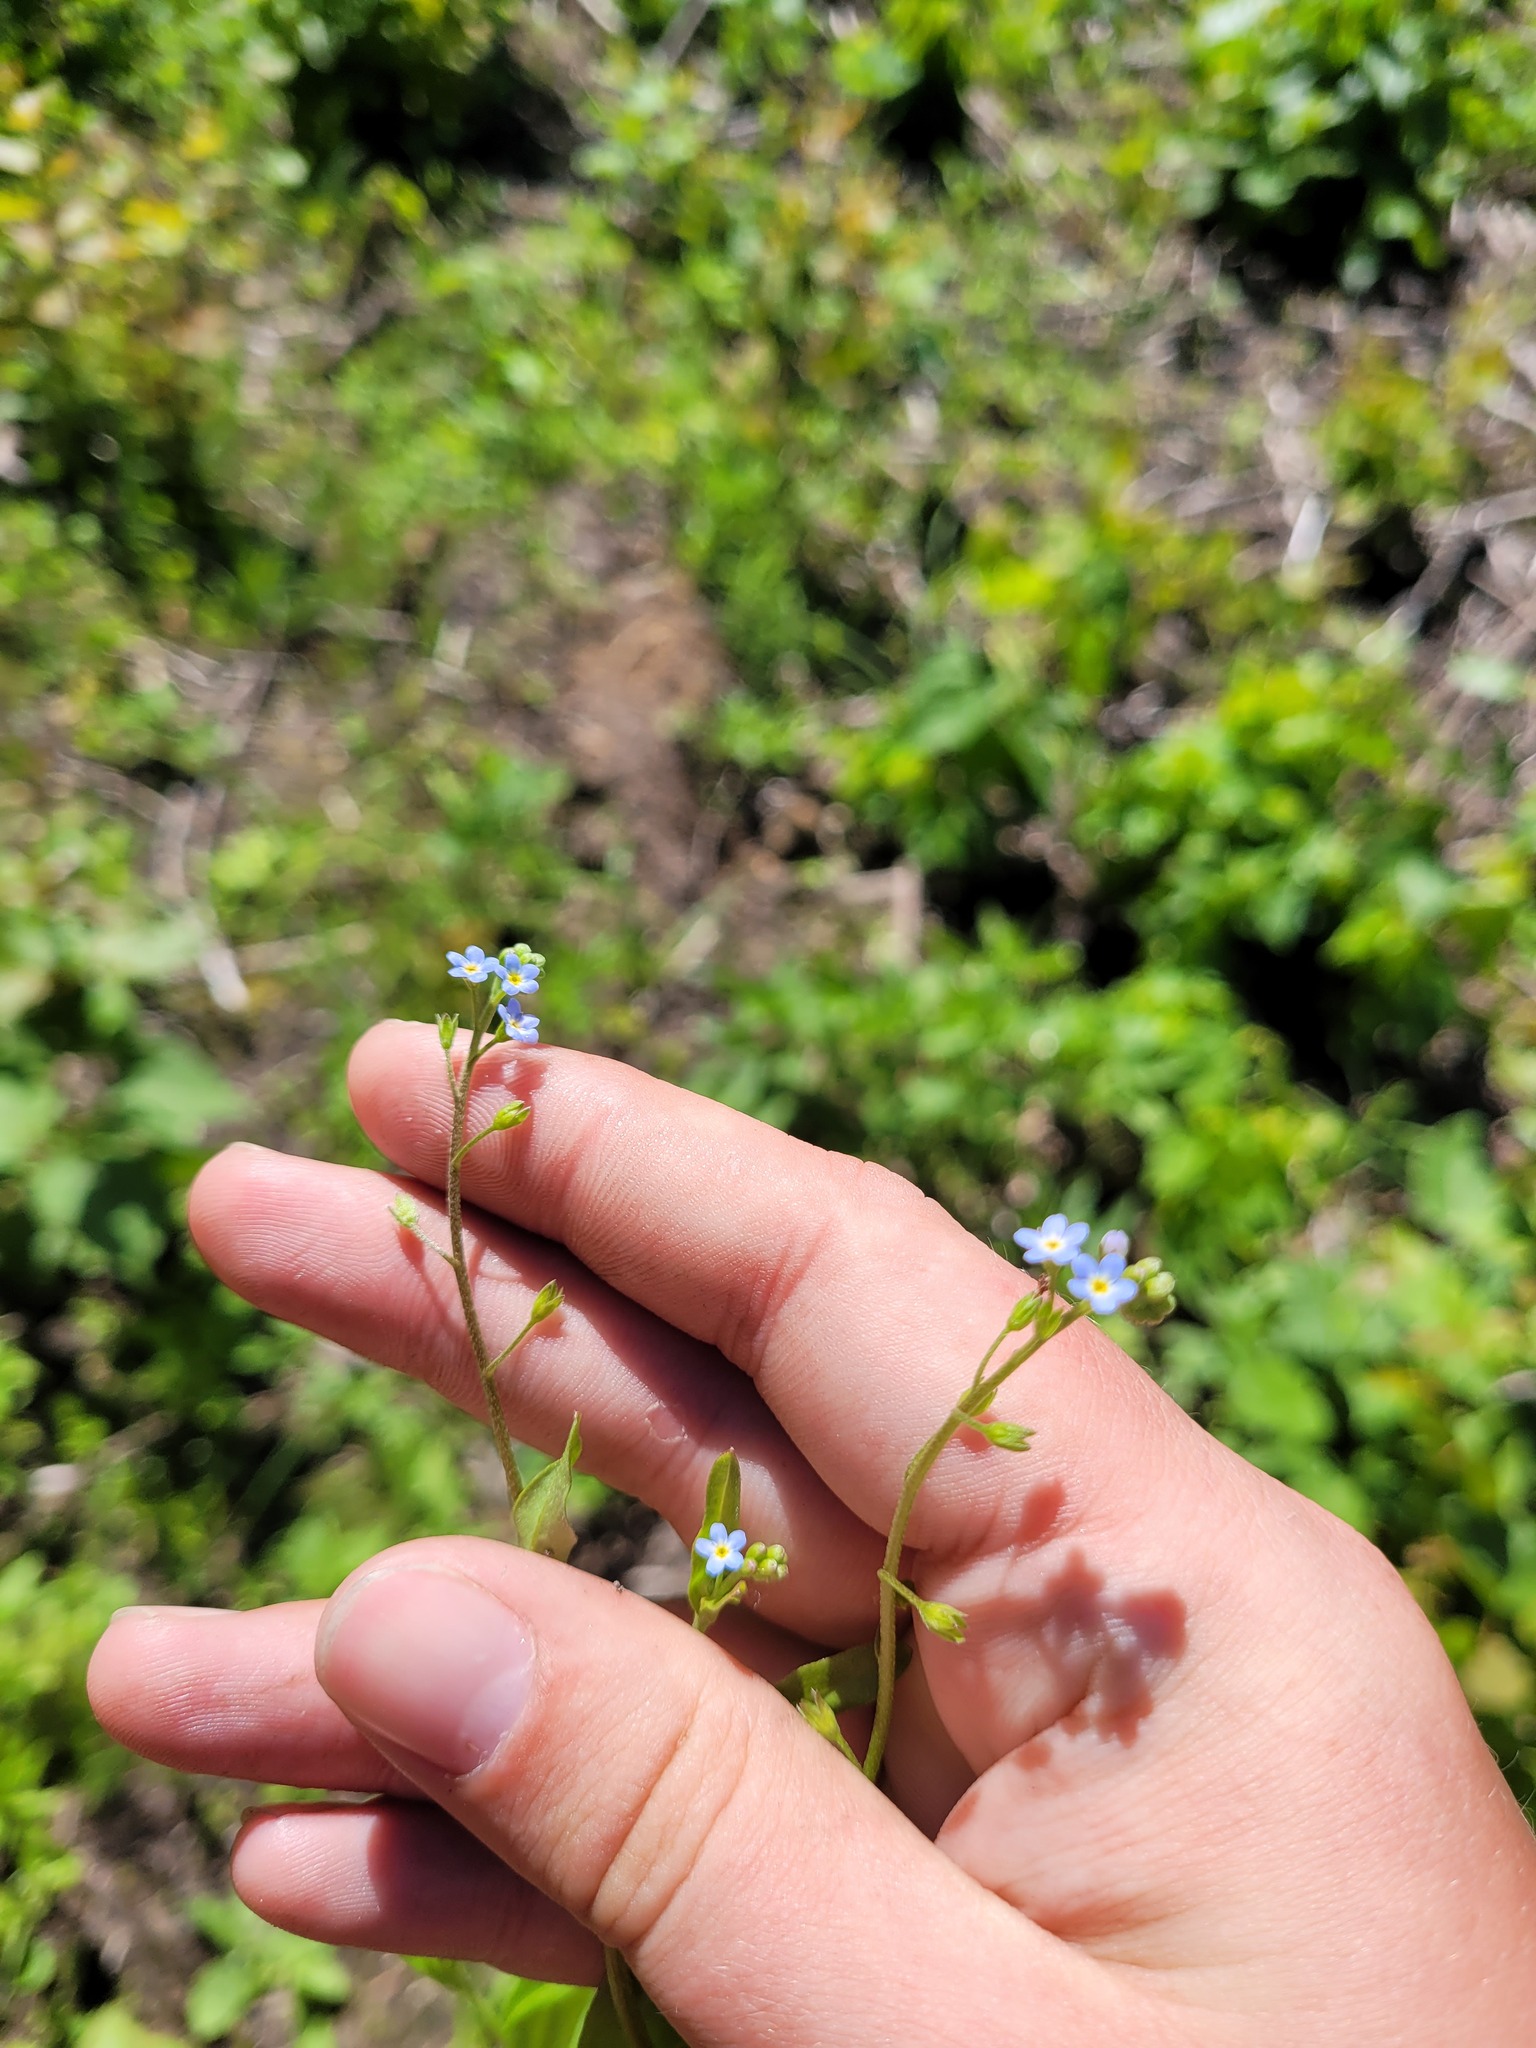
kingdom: Plantae
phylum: Tracheophyta
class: Magnoliopsida
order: Boraginales
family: Boraginaceae
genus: Myosotis
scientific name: Myosotis laxa
